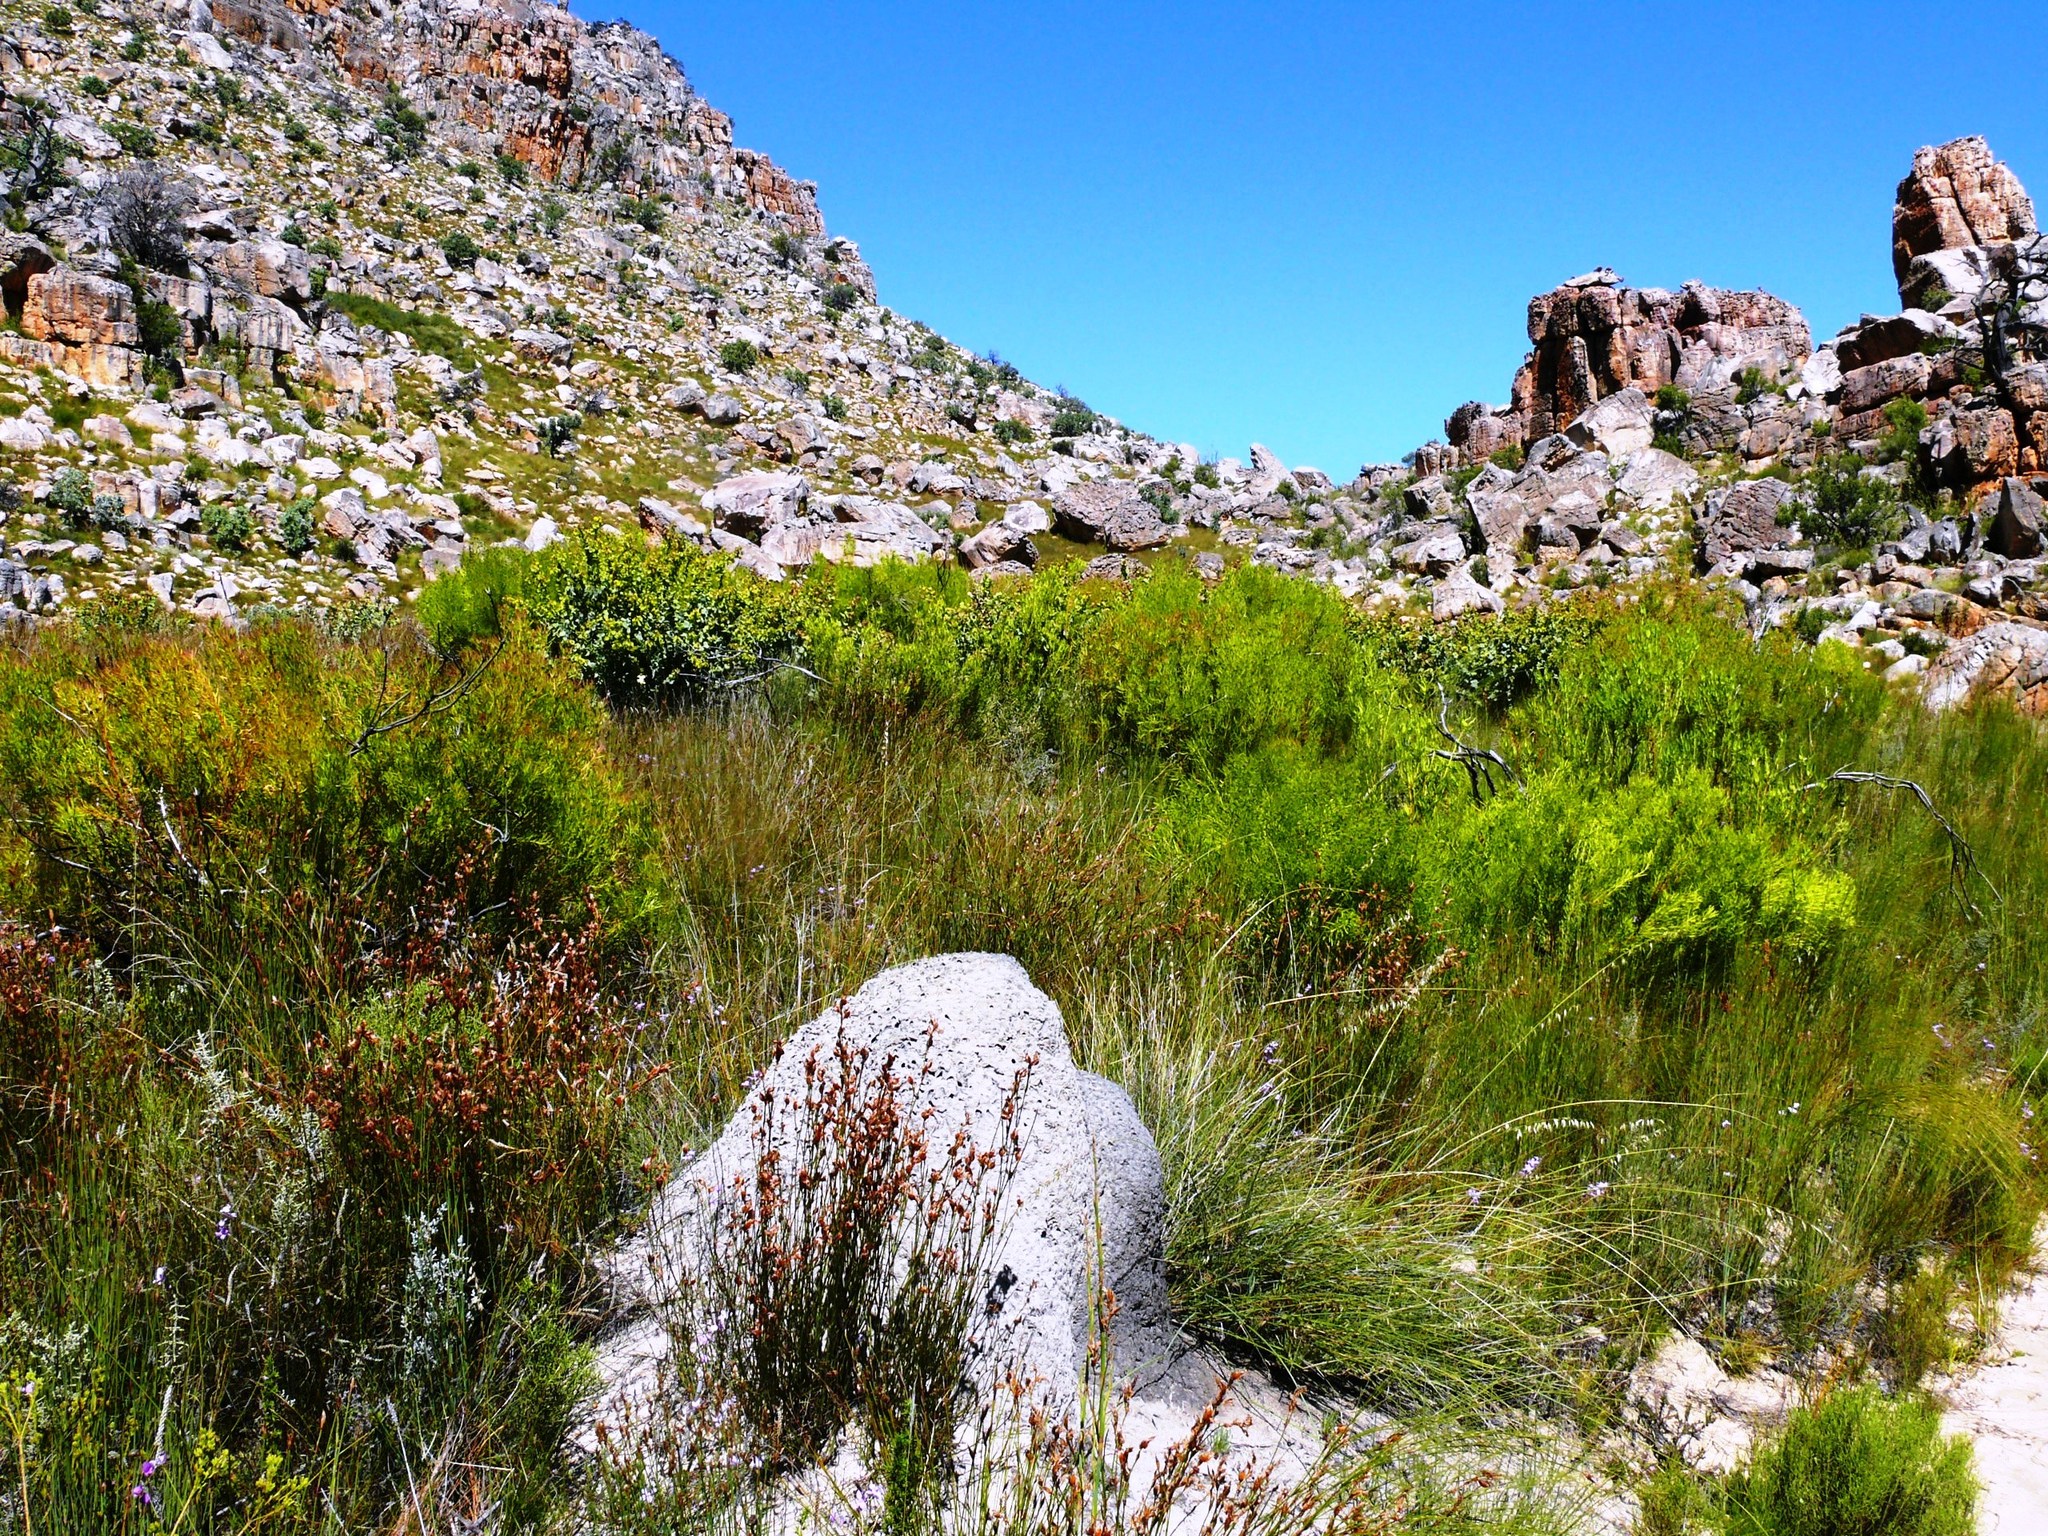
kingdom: Animalia
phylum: Arthropoda
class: Insecta
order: Blattodea
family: Termitidae
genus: Amitermes
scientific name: Amitermes hastatus
